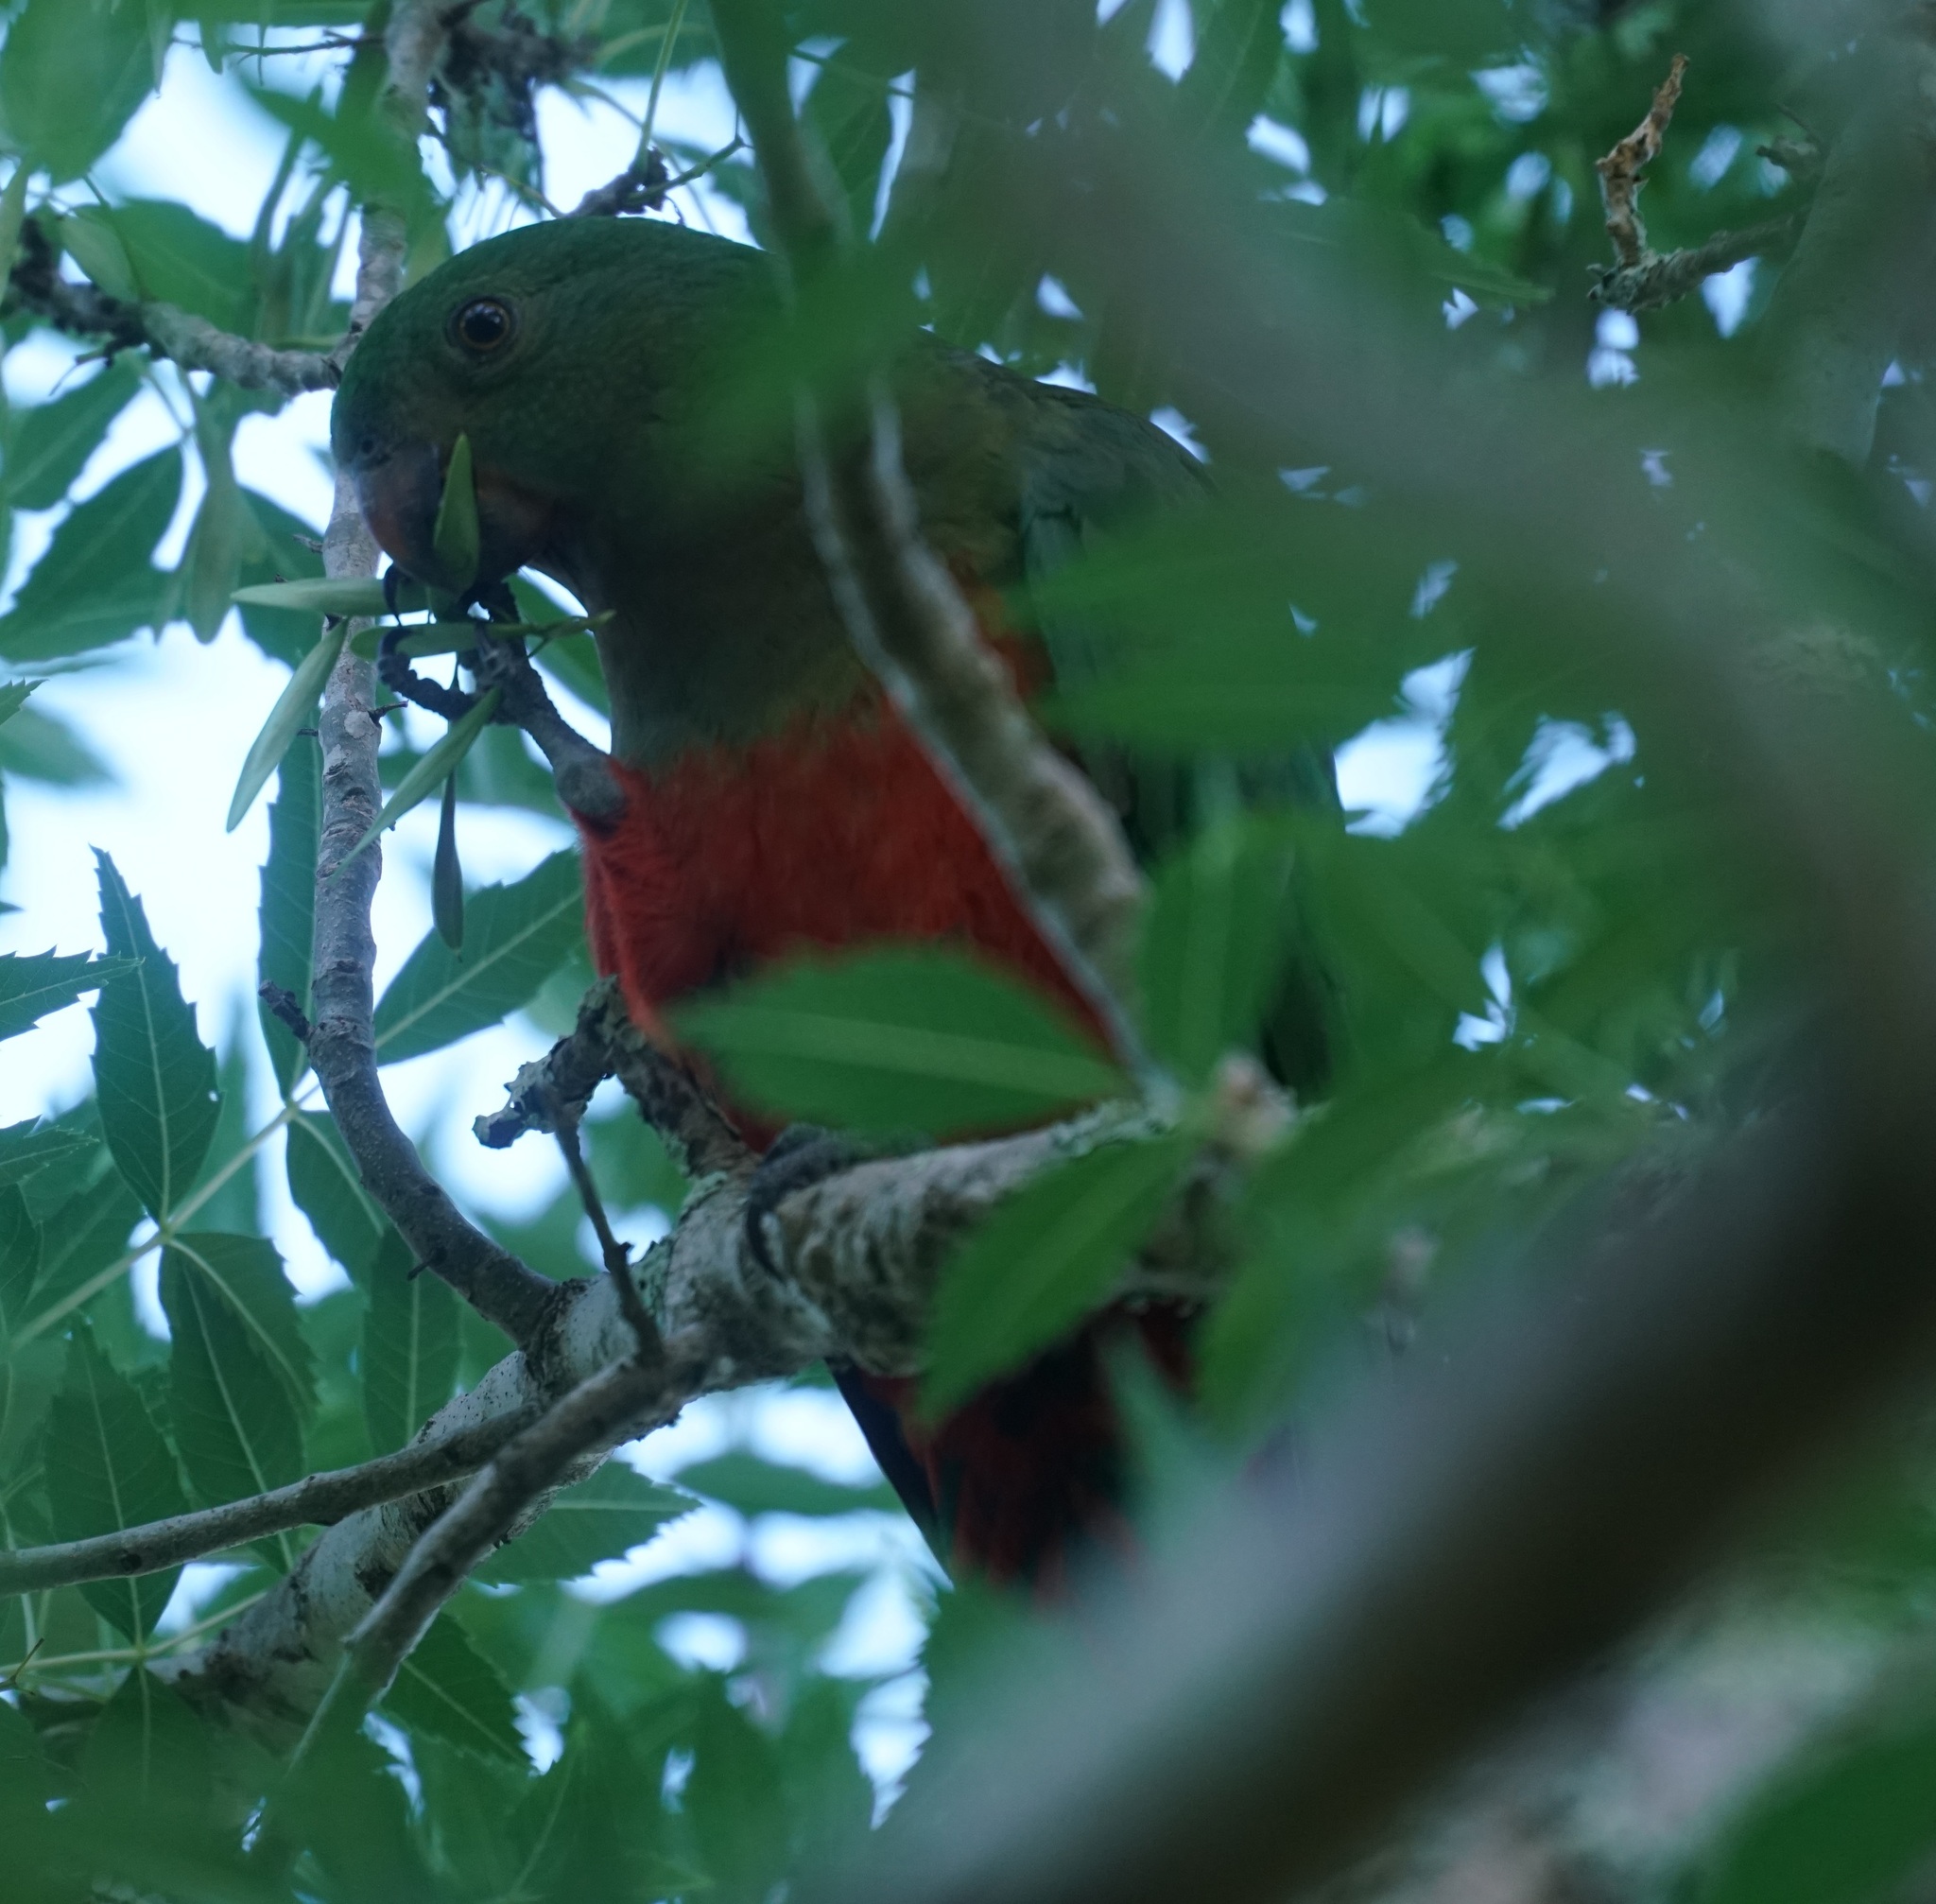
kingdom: Animalia
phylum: Chordata
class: Aves
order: Psittaciformes
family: Psittacidae
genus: Alisterus
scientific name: Alisterus scapularis
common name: Australian king parrot
